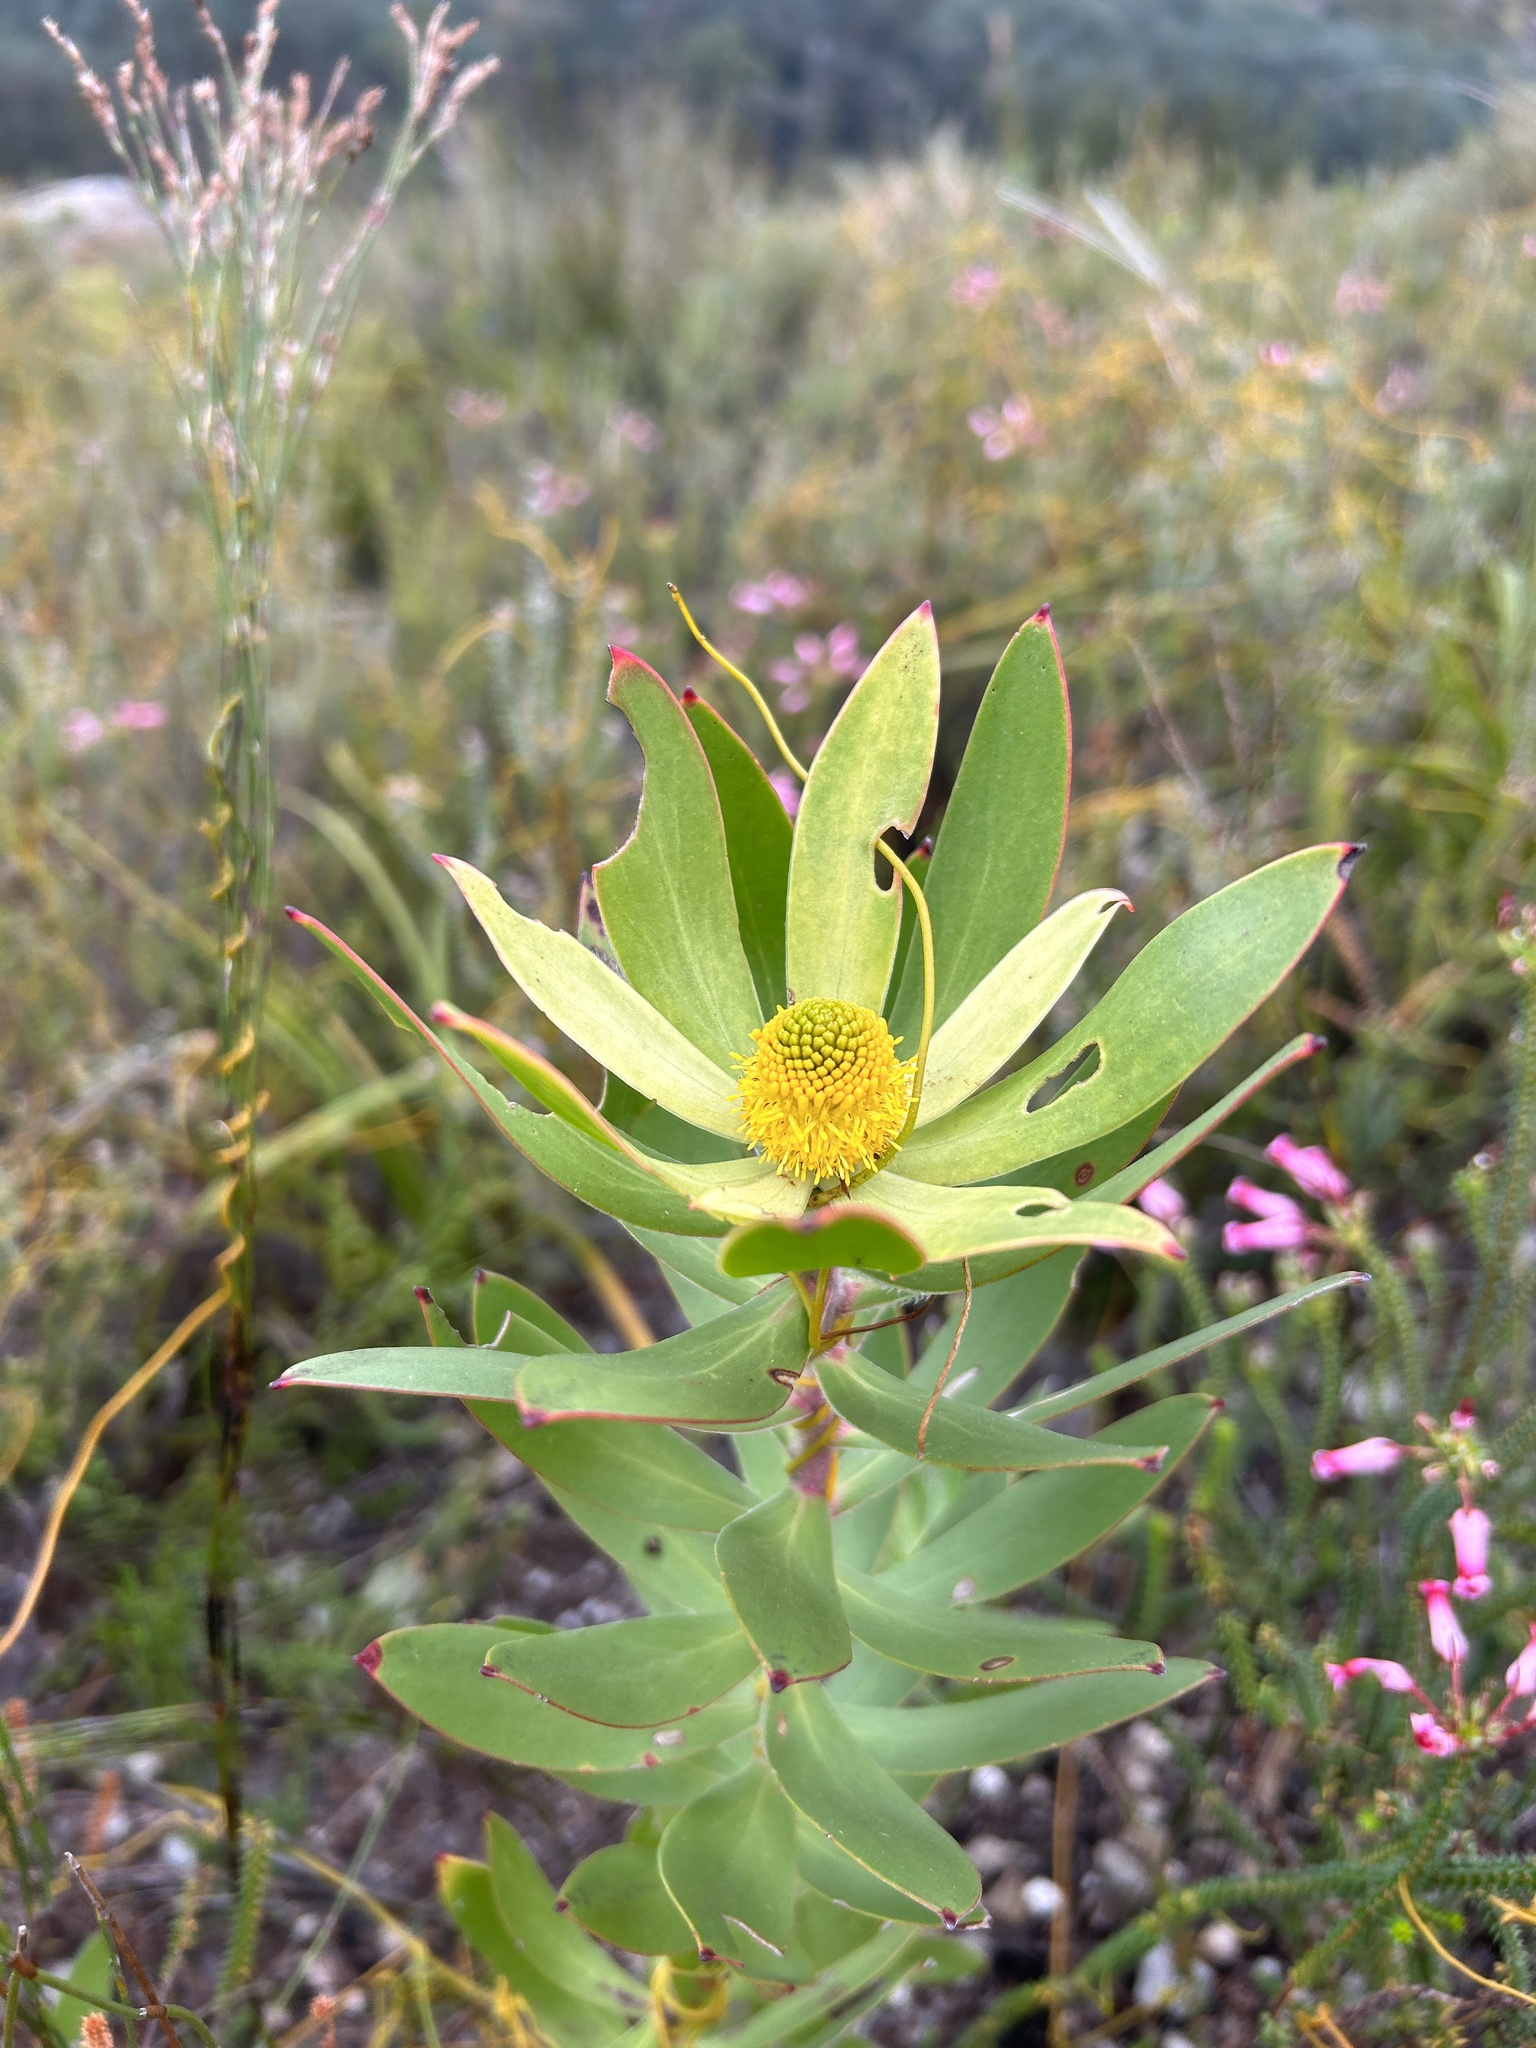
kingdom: Plantae
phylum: Tracheophyta
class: Magnoliopsida
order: Proteales
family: Proteaceae
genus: Leucadendron
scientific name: Leucadendron gandogeri
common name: Broad-leaf conebush
